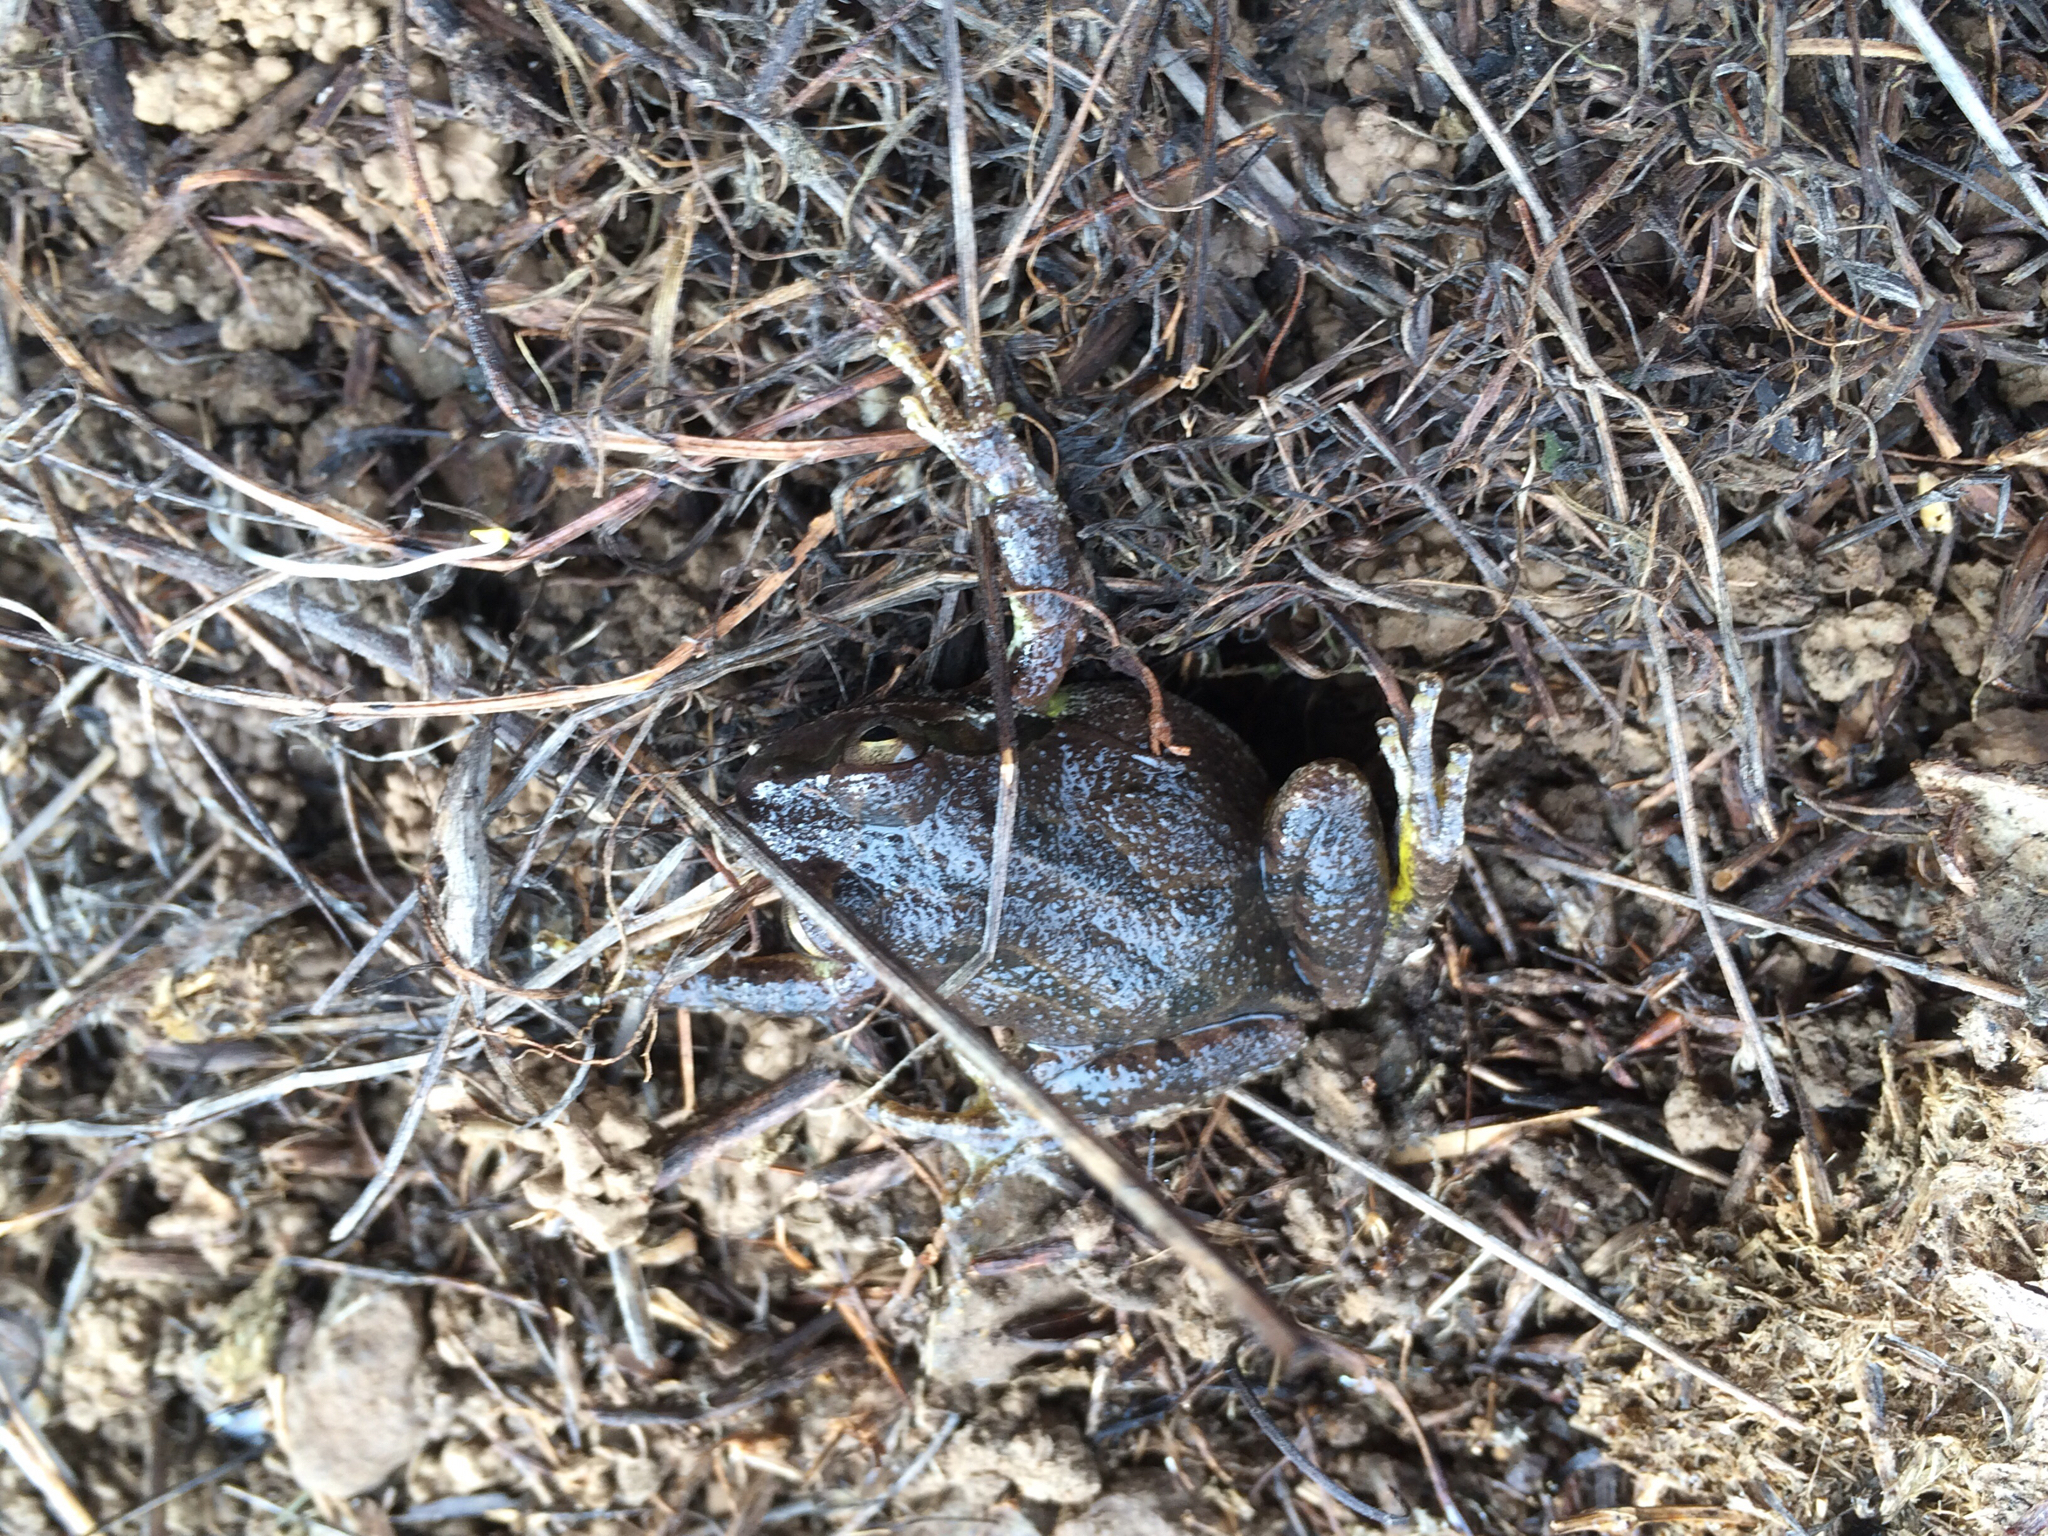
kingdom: Animalia
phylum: Chordata
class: Amphibia
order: Anura
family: Hylidae
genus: Pseudacris
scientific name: Pseudacris regilla
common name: Pacific chorus frog
